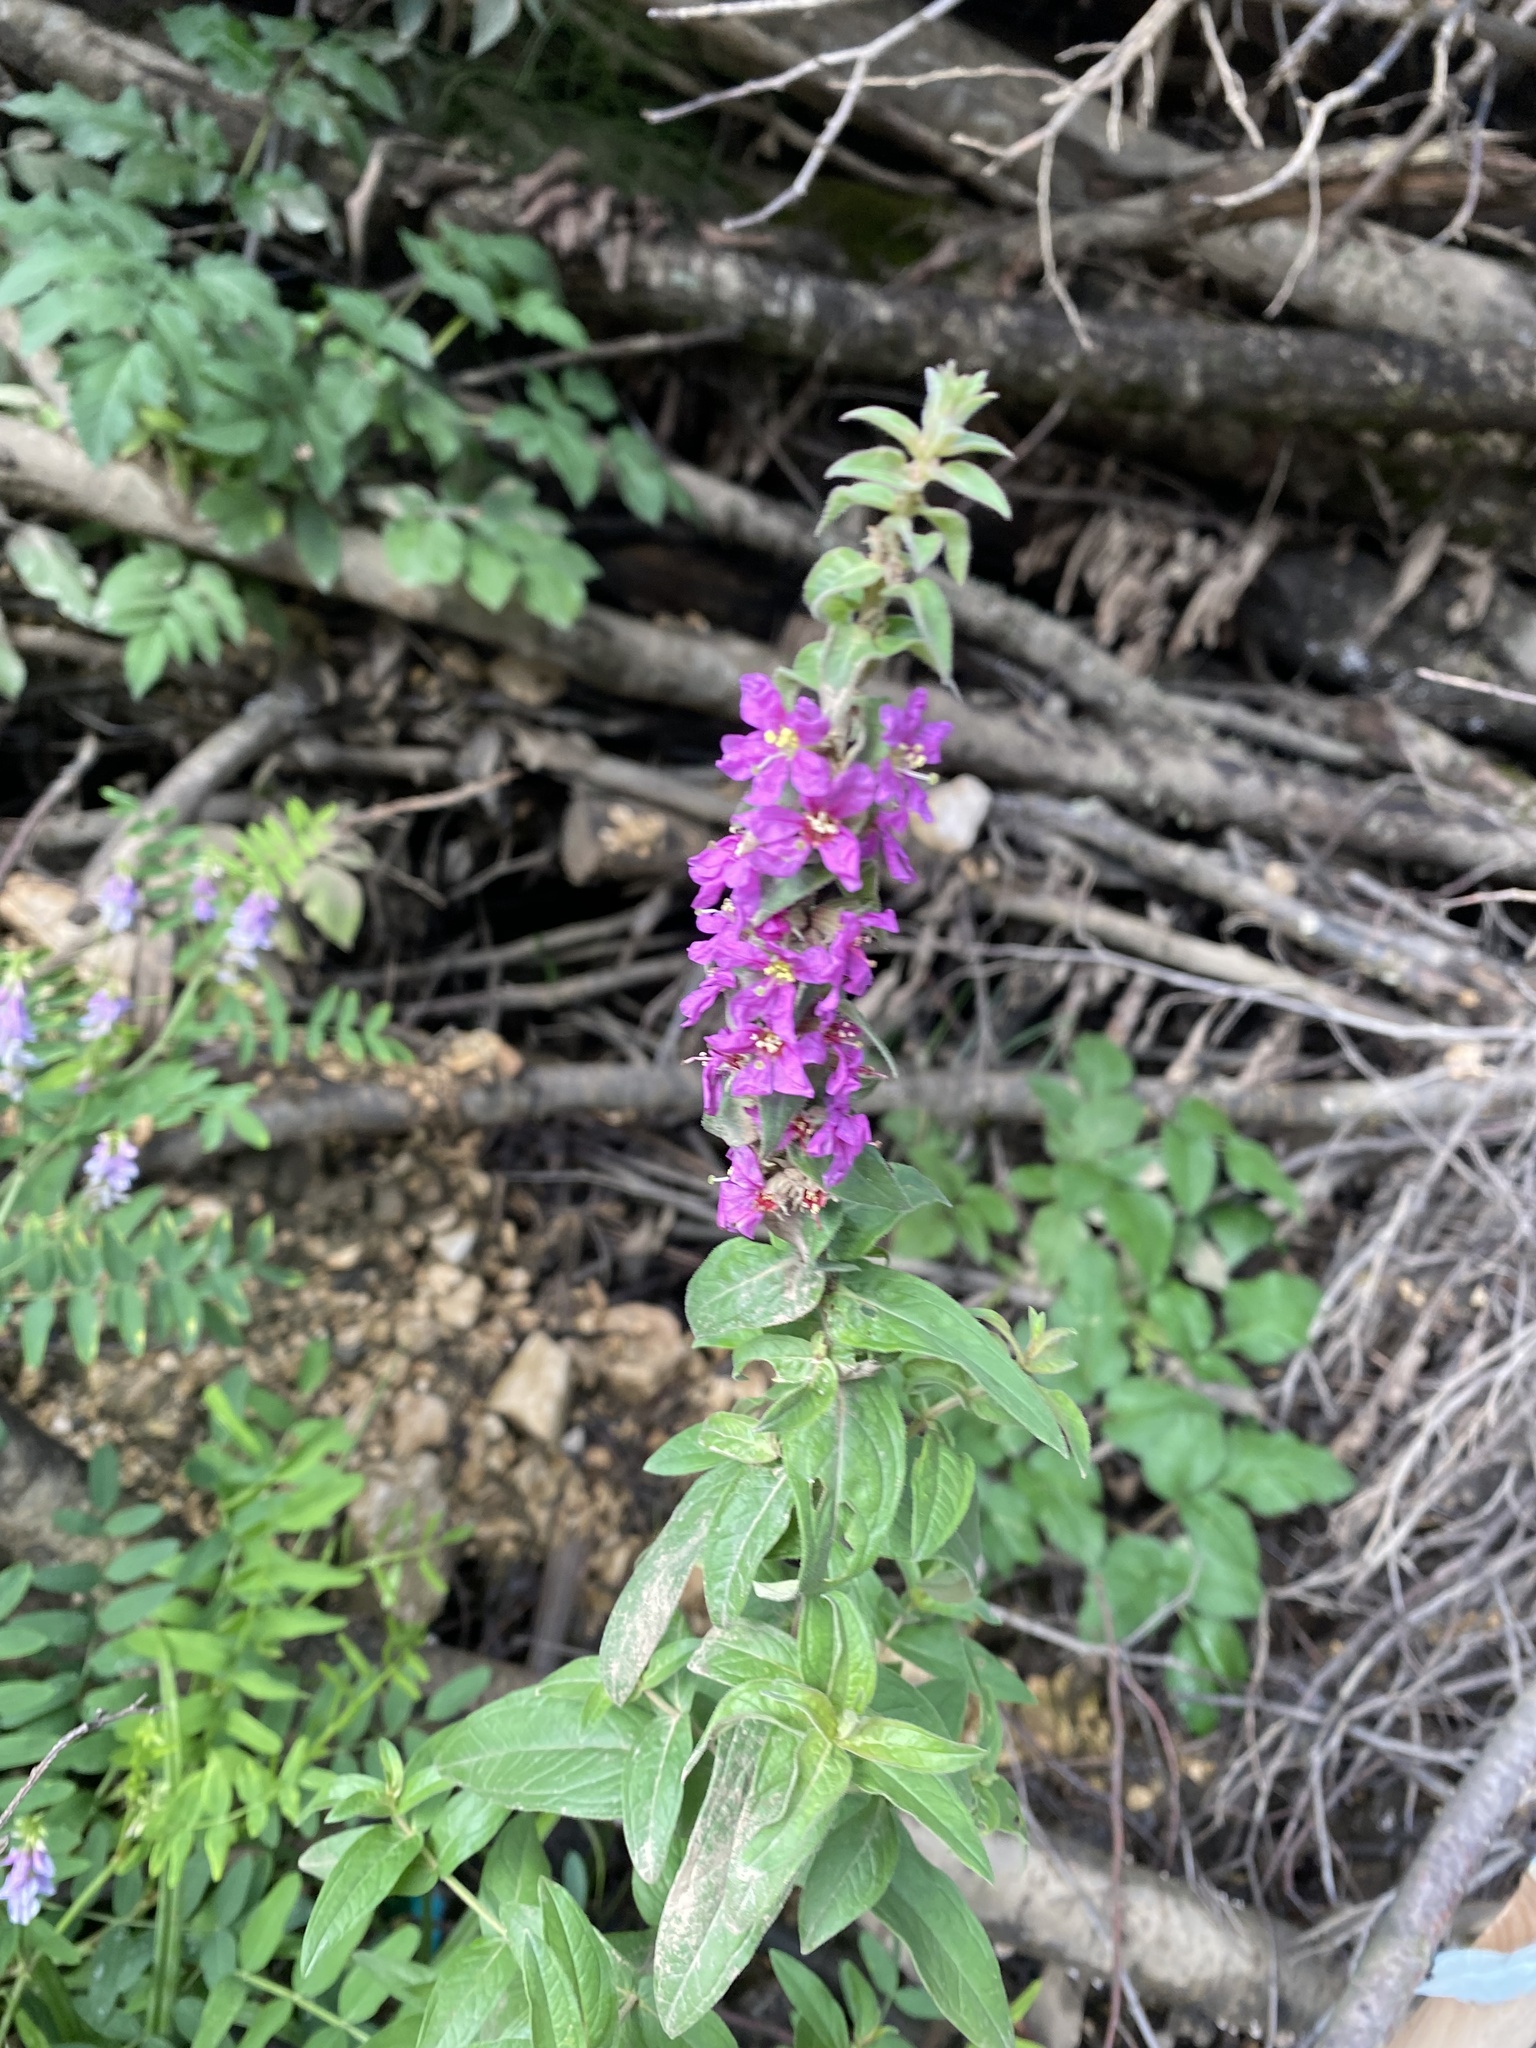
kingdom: Plantae
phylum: Tracheophyta
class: Magnoliopsida
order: Myrtales
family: Lythraceae
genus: Lythrum
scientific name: Lythrum salicaria
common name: Purple loosestrife
